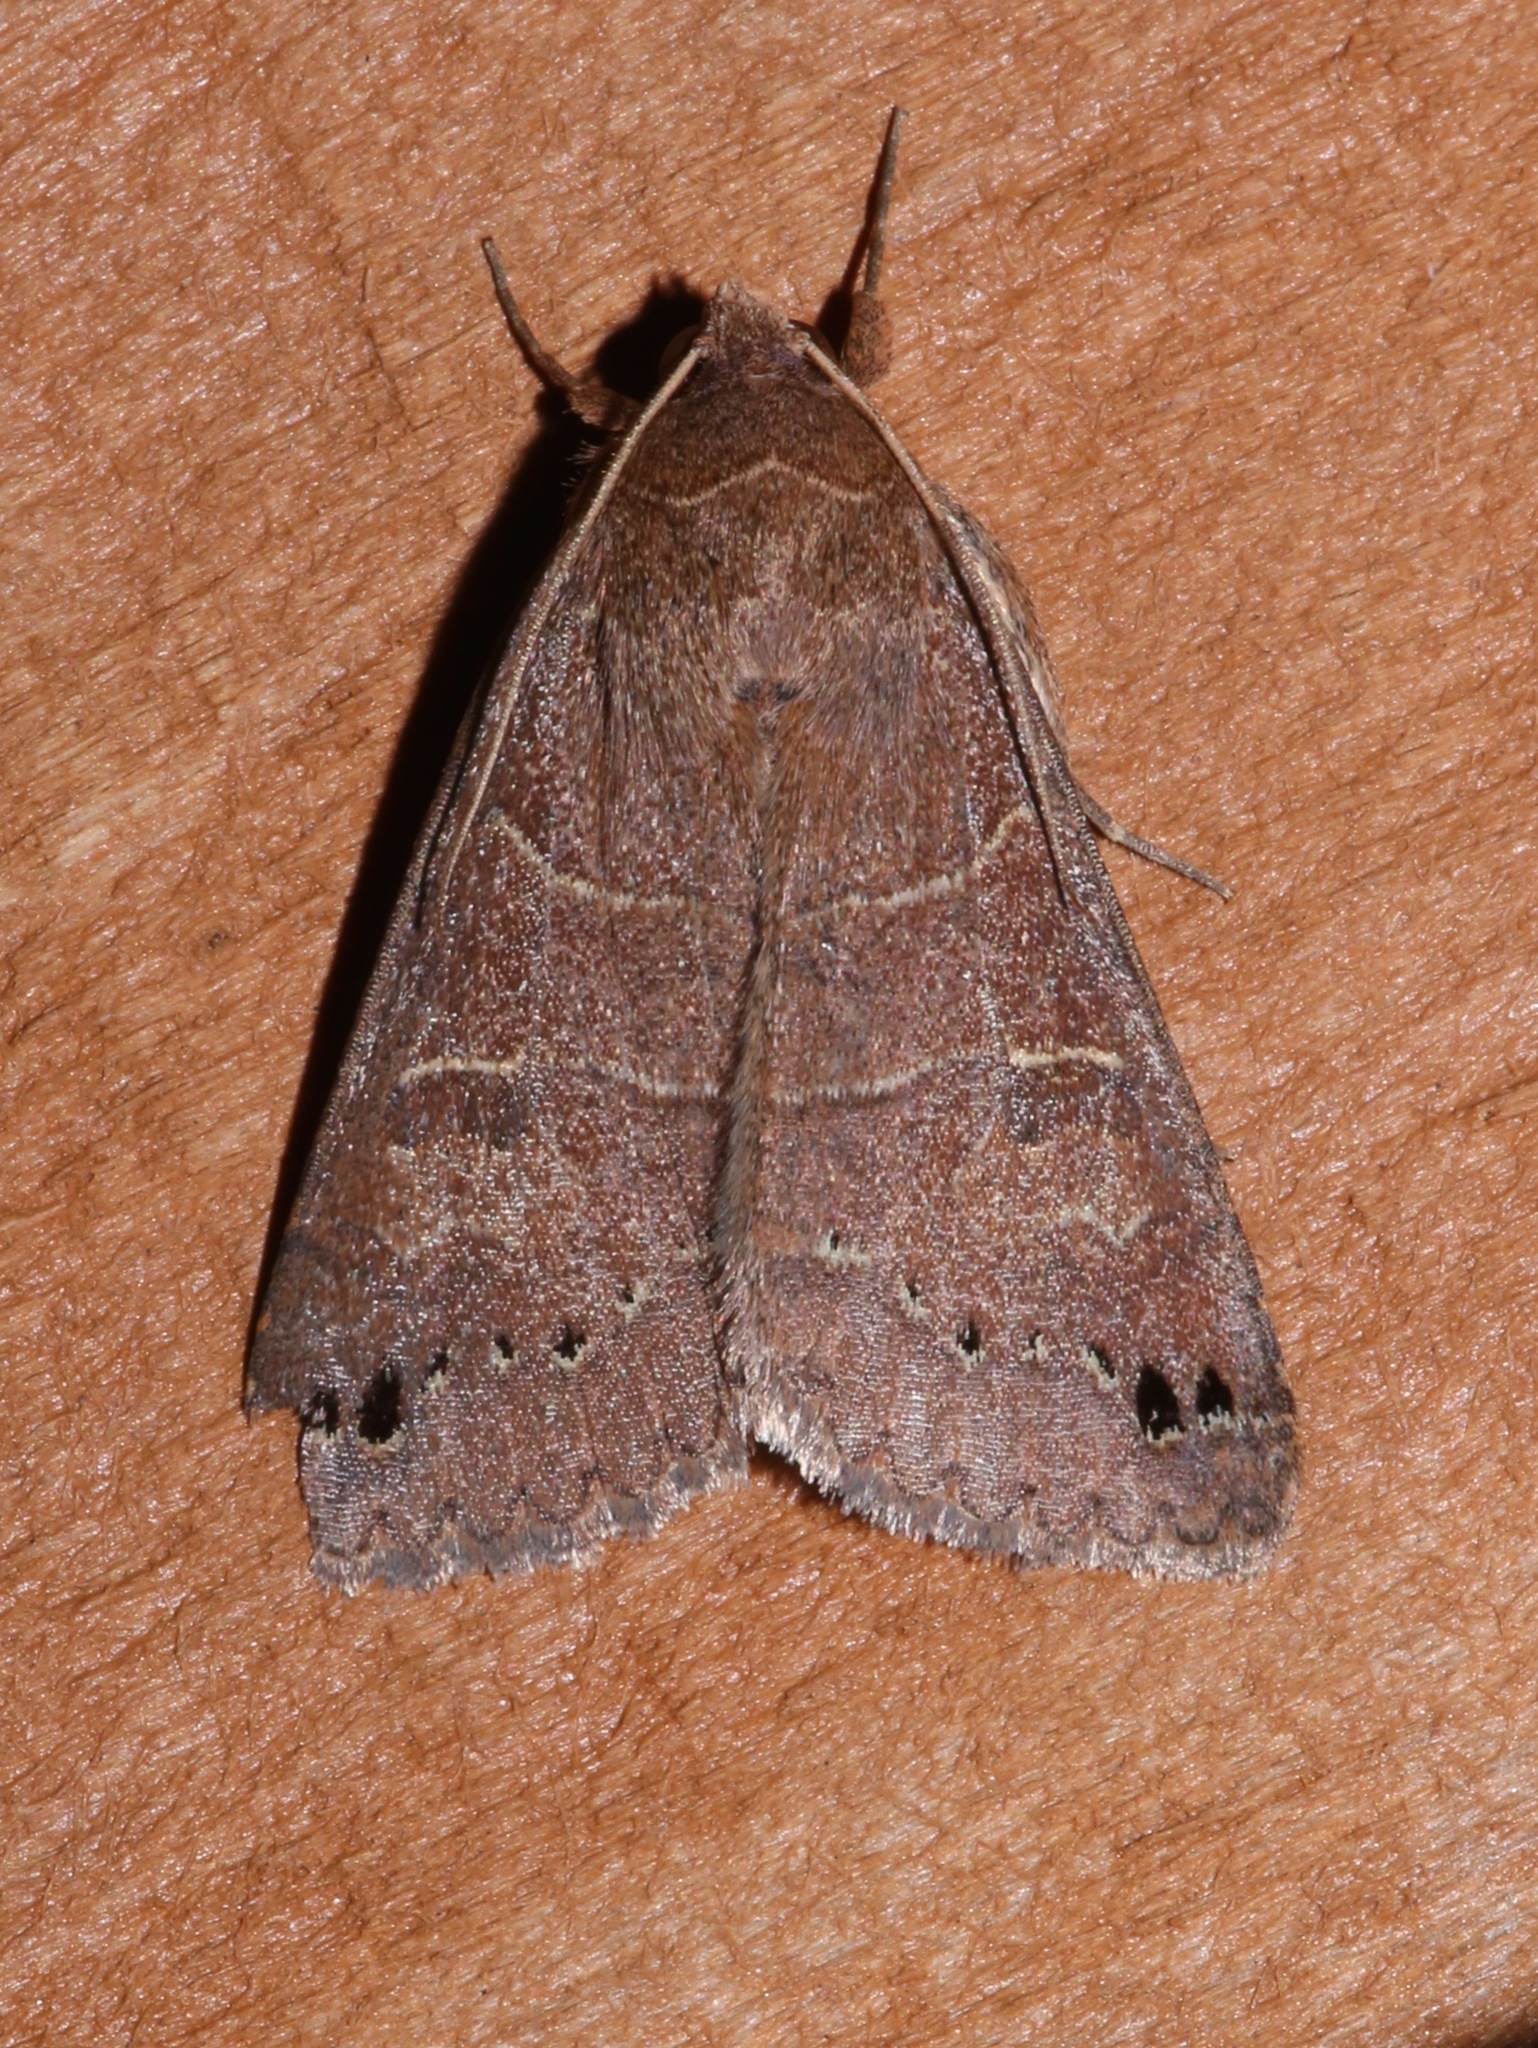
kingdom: Animalia
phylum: Arthropoda
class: Insecta
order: Lepidoptera
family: Erebidae
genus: Cissusa
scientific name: Cissusa spadix
